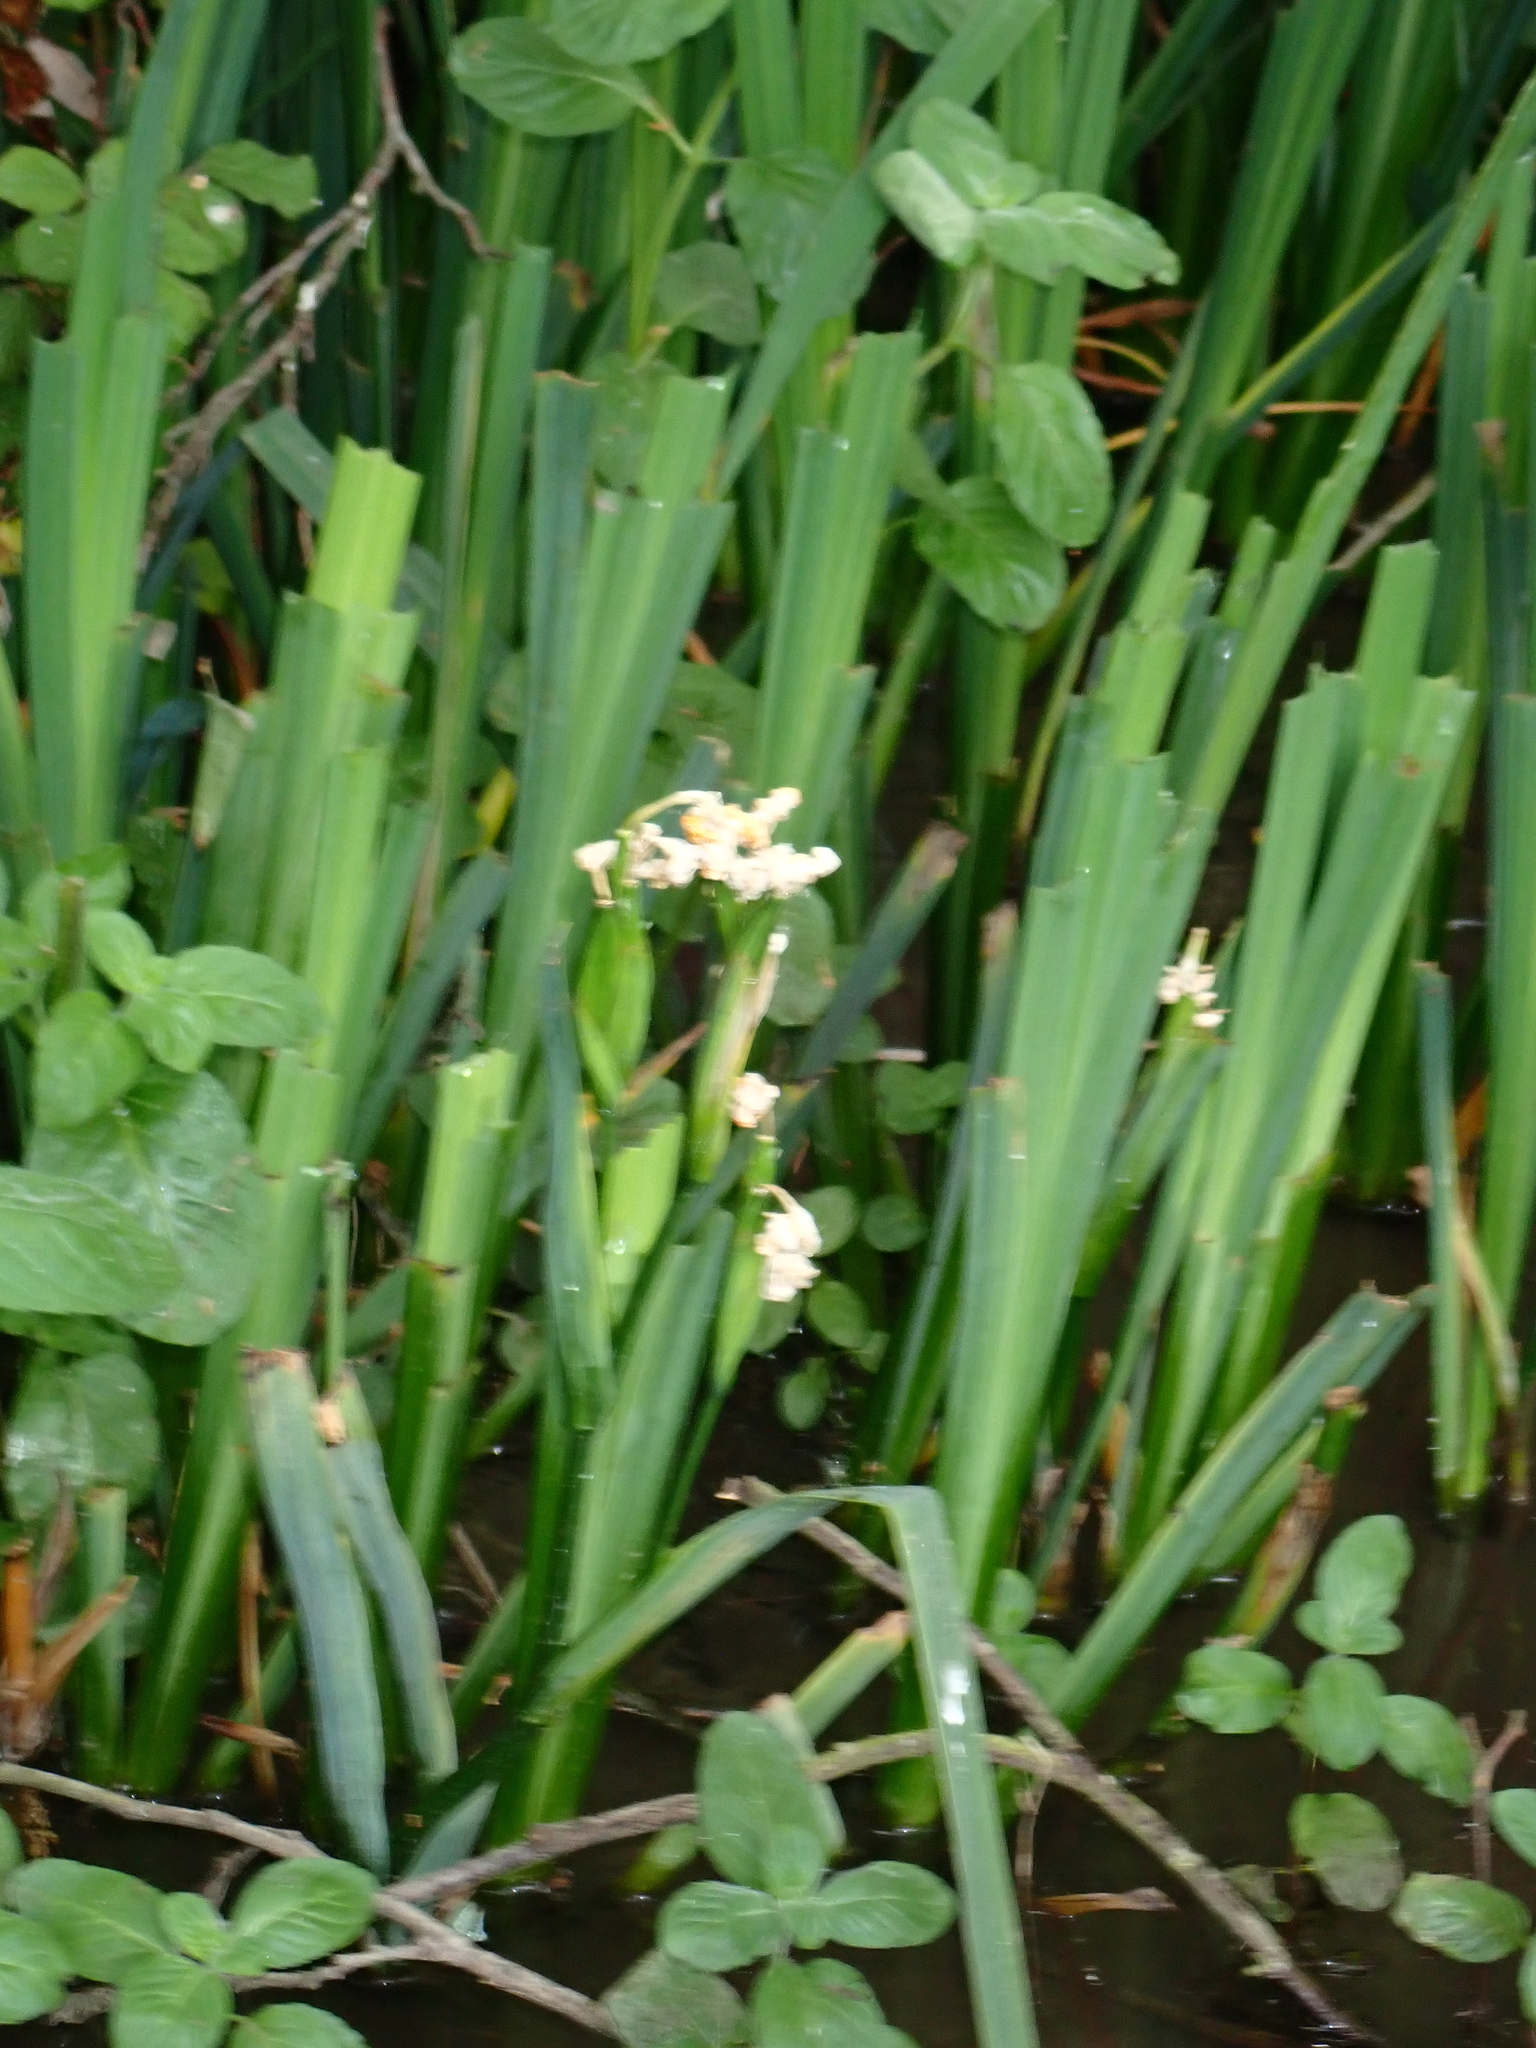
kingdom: Plantae
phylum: Tracheophyta
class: Liliopsida
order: Asparagales
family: Iridaceae
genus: Iris
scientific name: Iris pseudacorus
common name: Yellow flag
